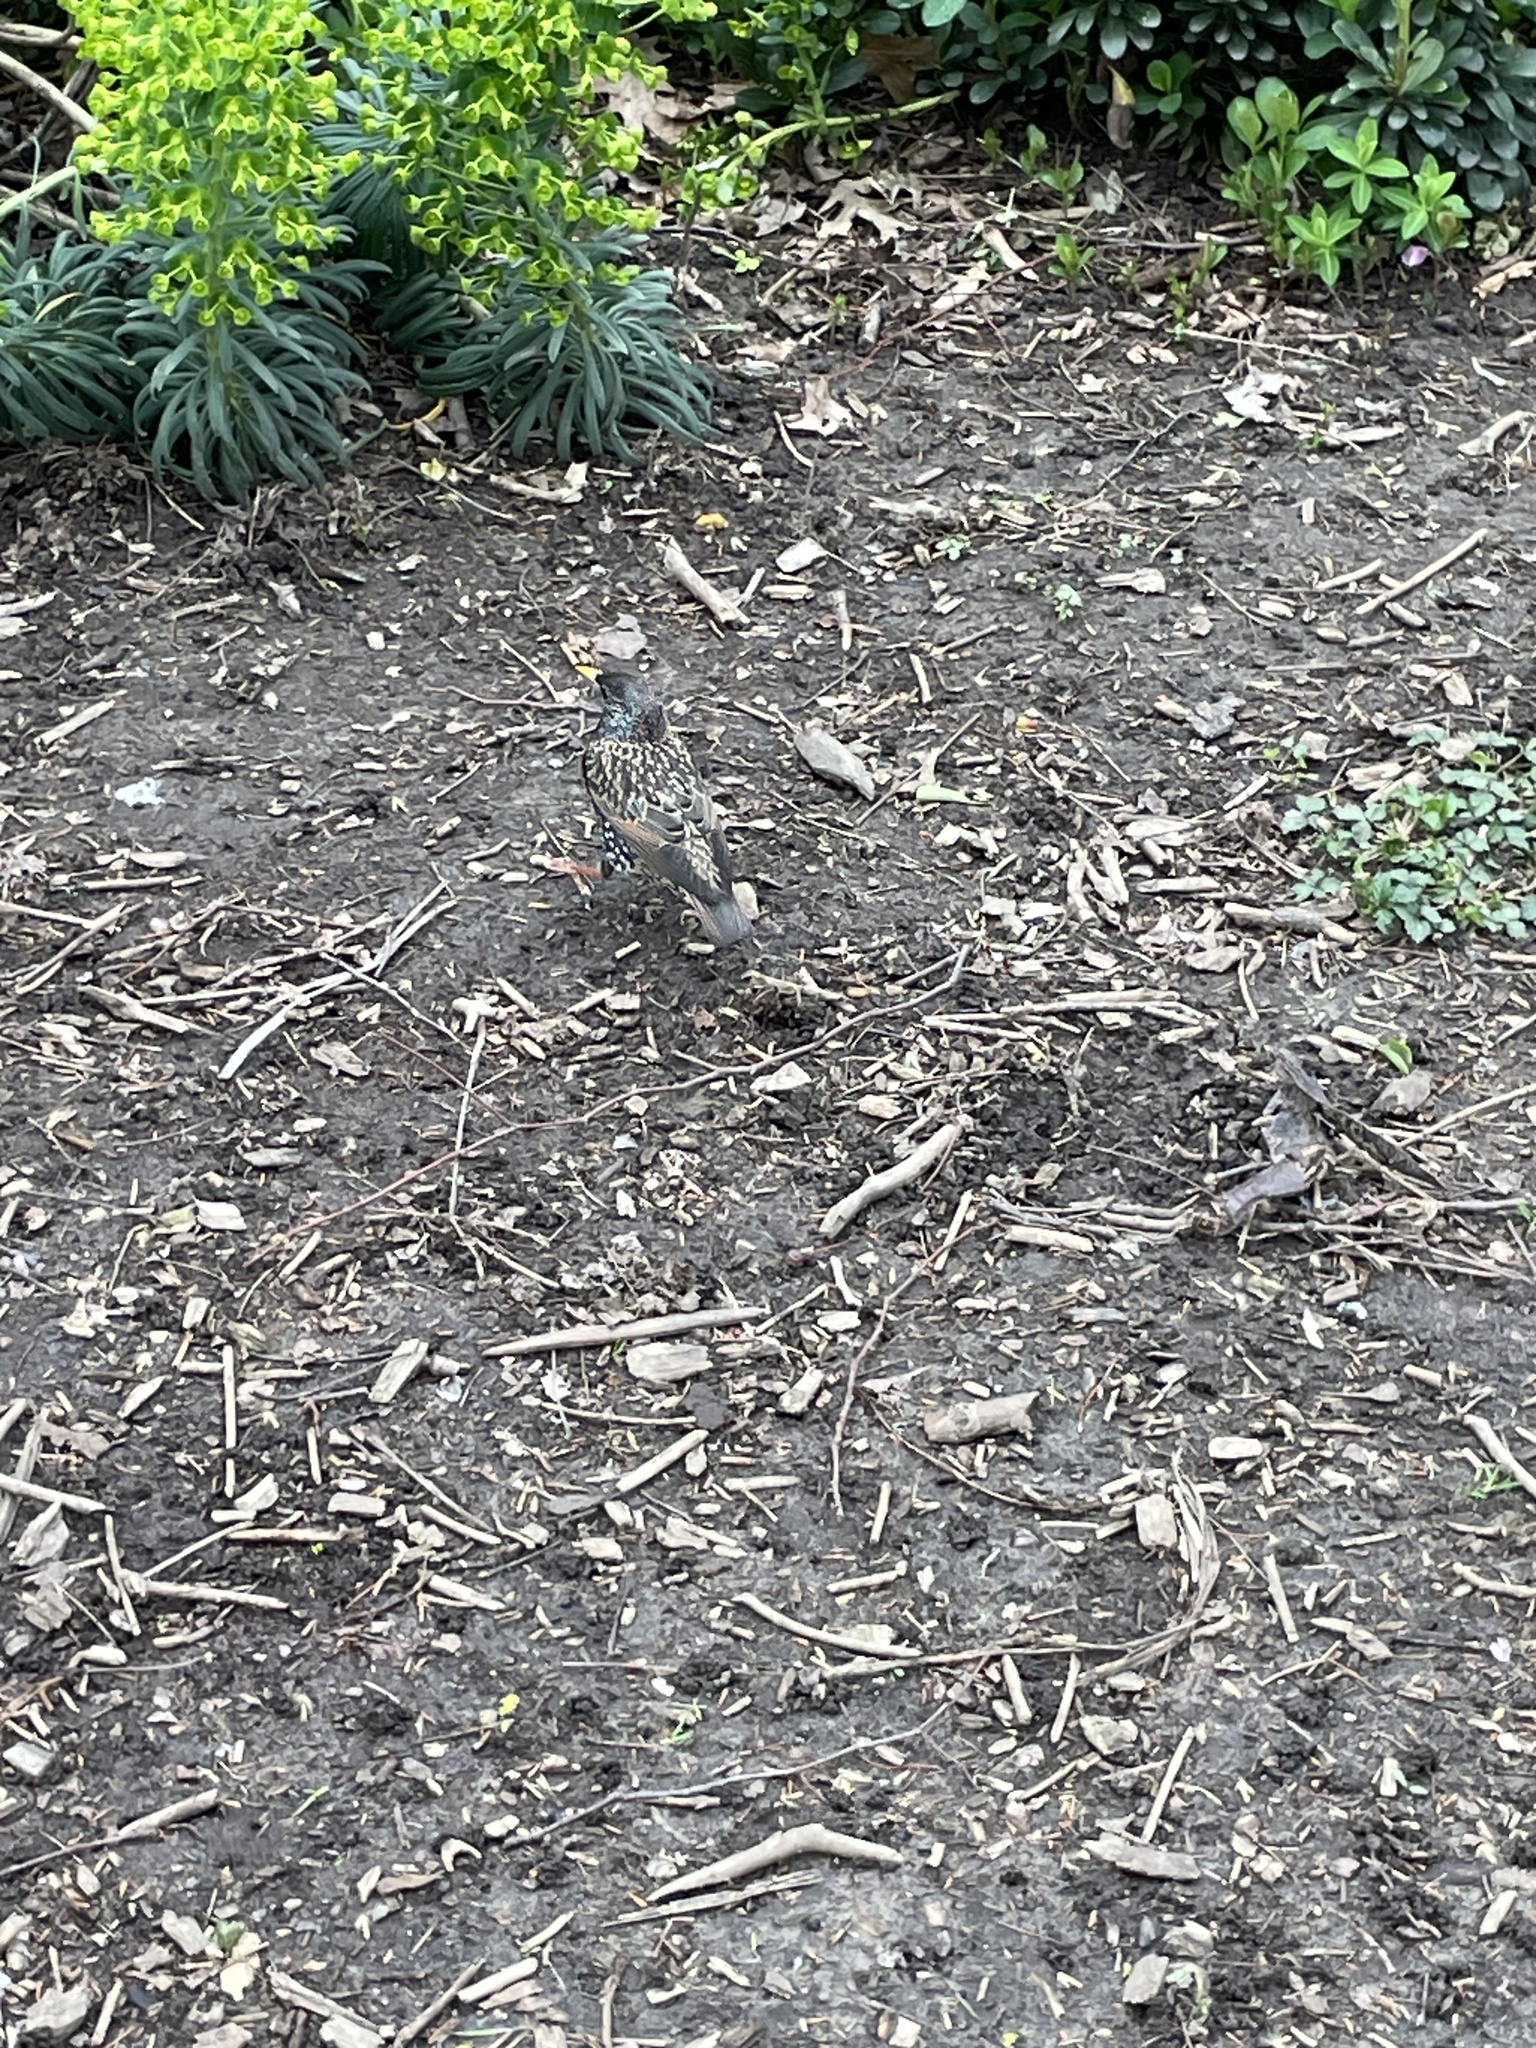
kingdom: Animalia
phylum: Chordata
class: Aves
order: Passeriformes
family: Sturnidae
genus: Sturnus
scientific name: Sturnus vulgaris
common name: Common starling
